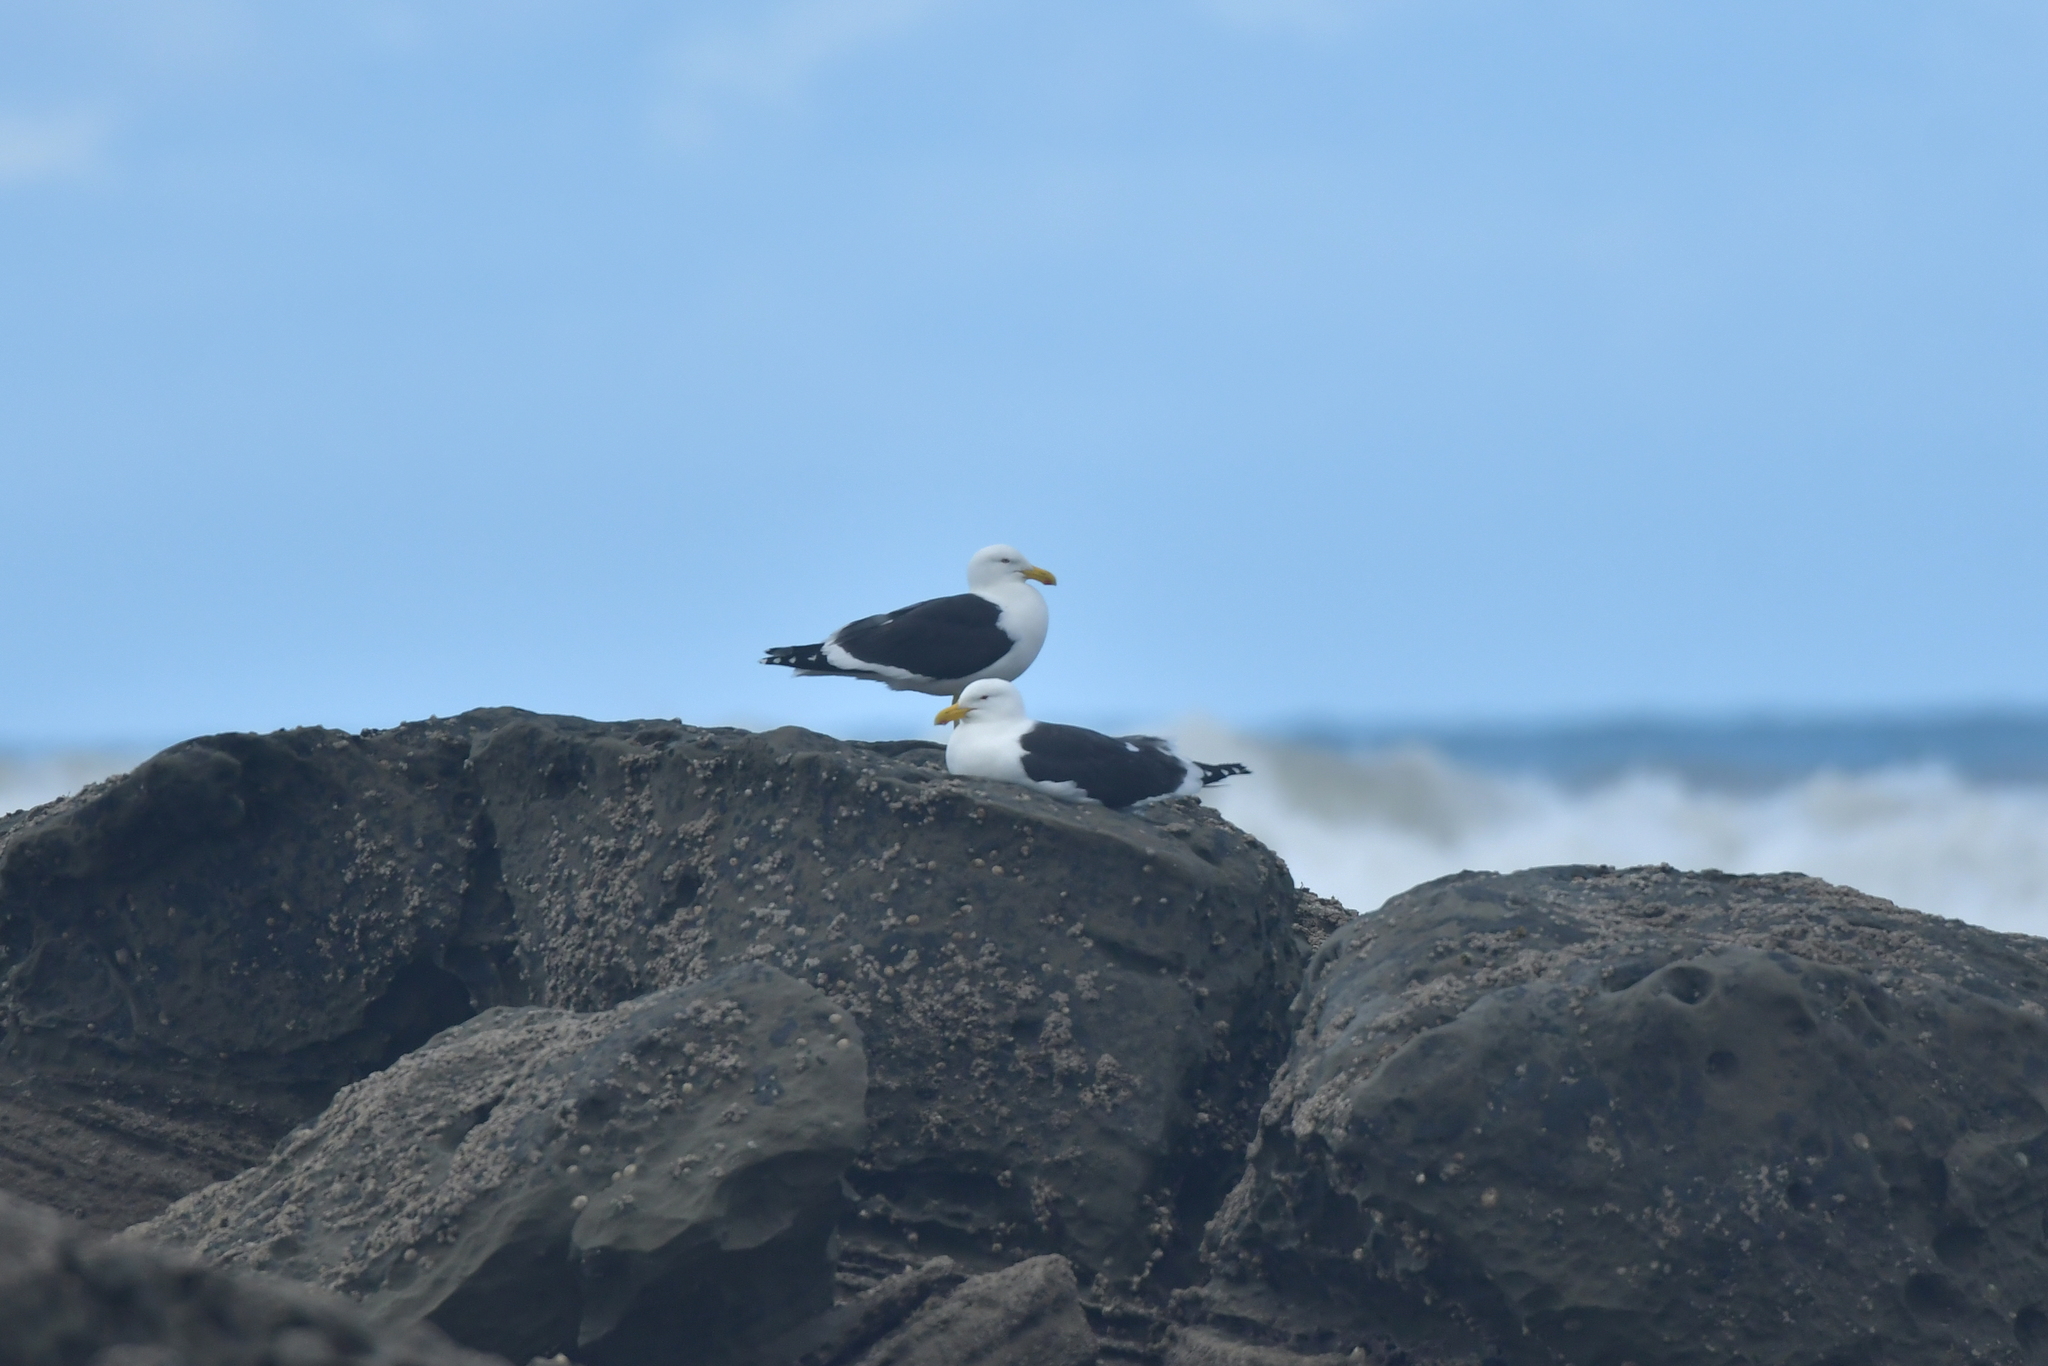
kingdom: Animalia
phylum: Chordata
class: Aves
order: Charadriiformes
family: Laridae
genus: Larus
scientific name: Larus dominicanus
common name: Kelp gull
